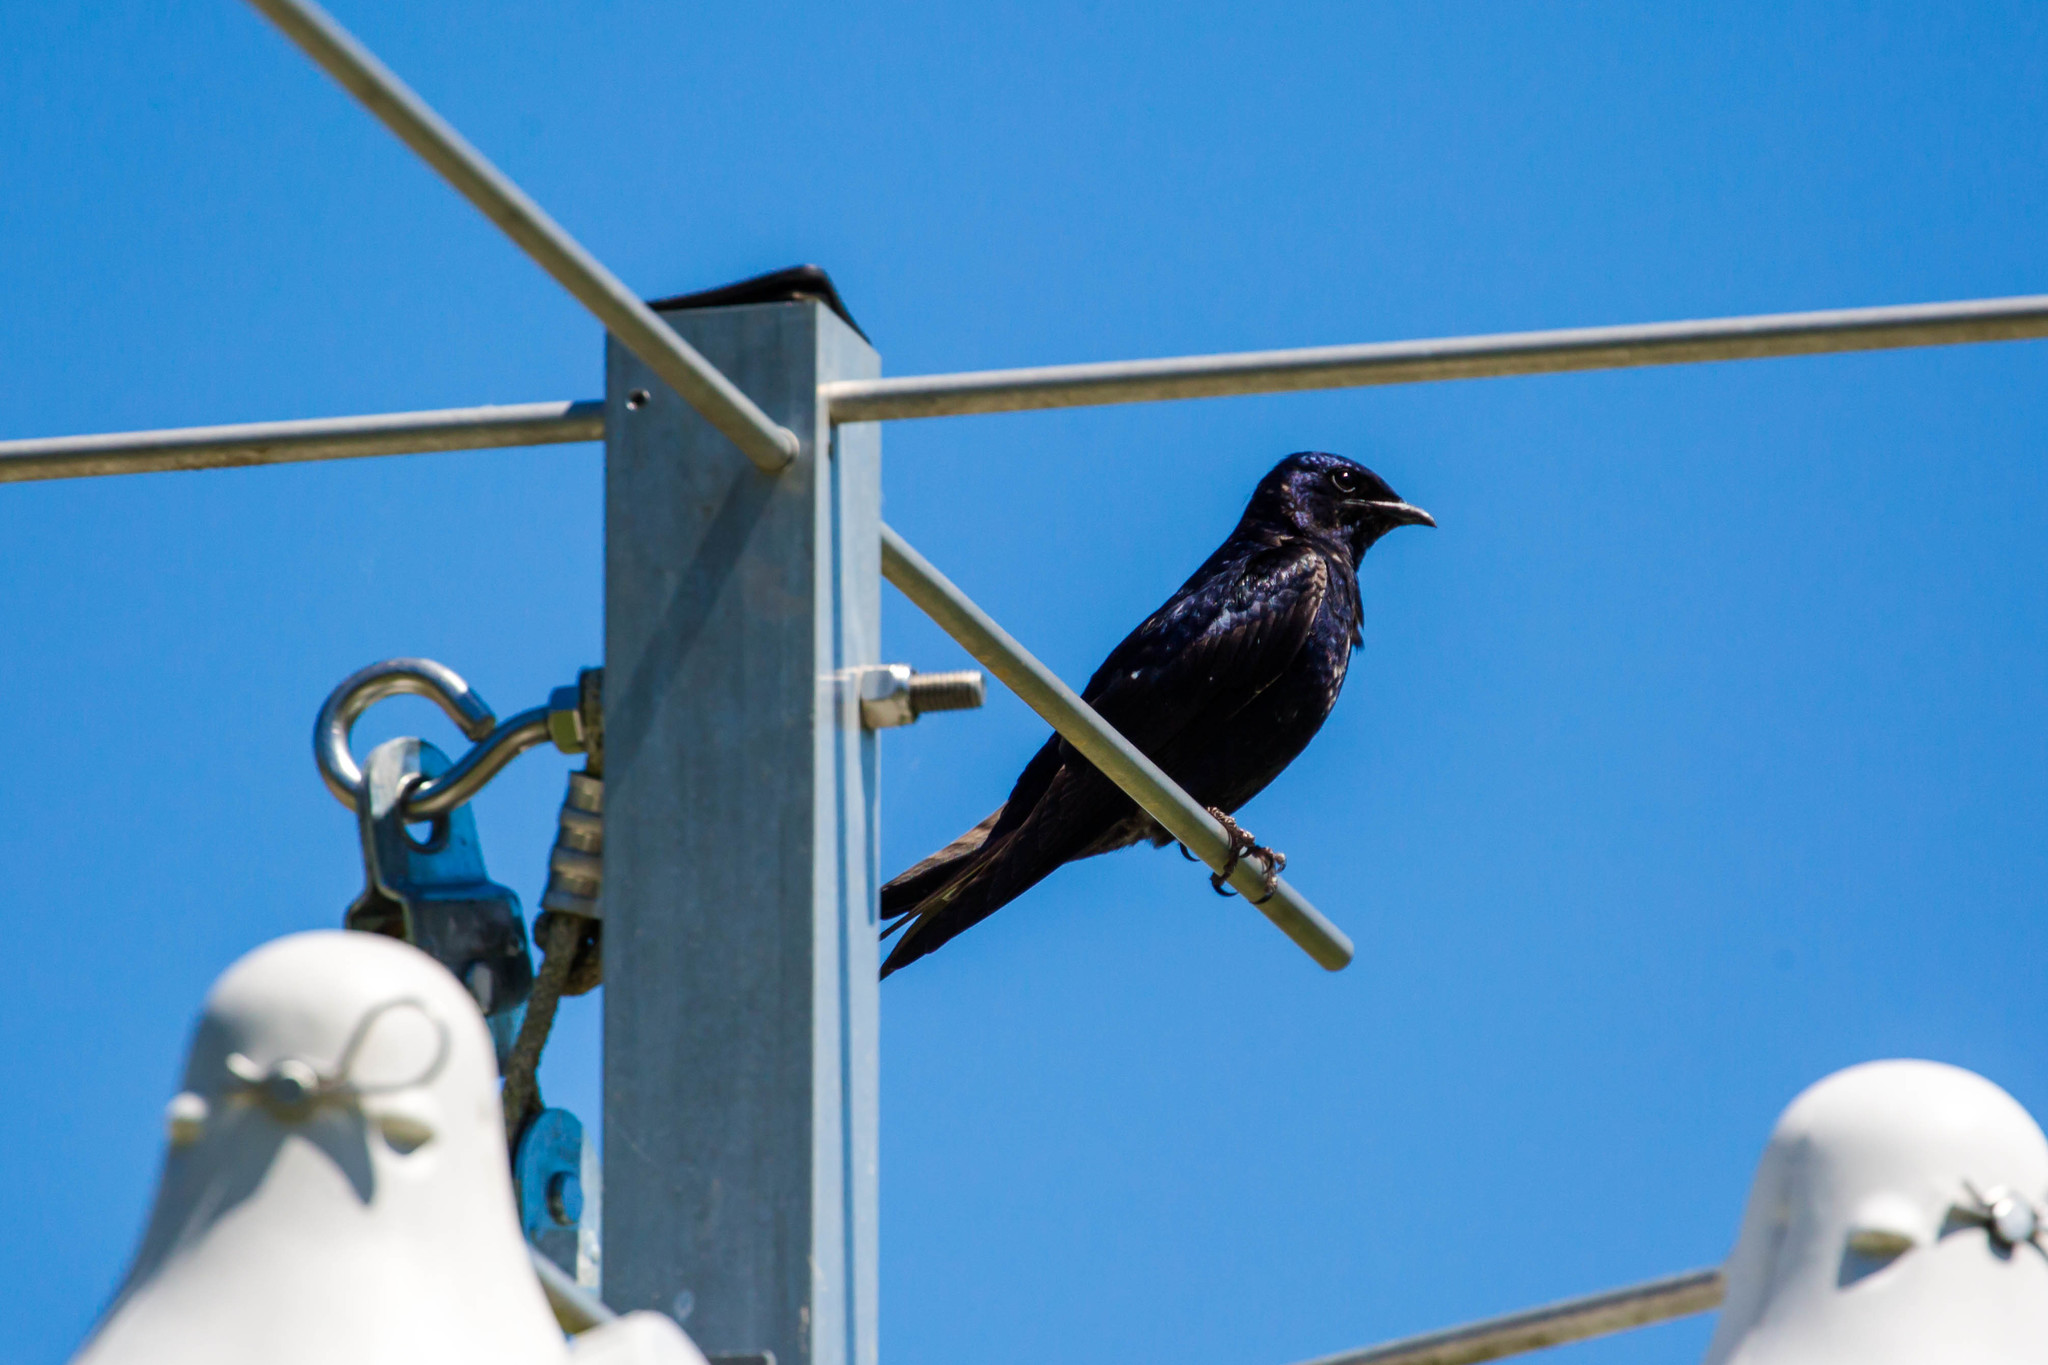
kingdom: Animalia
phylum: Chordata
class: Aves
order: Passeriformes
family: Hirundinidae
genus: Progne
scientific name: Progne subis
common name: Purple martin
